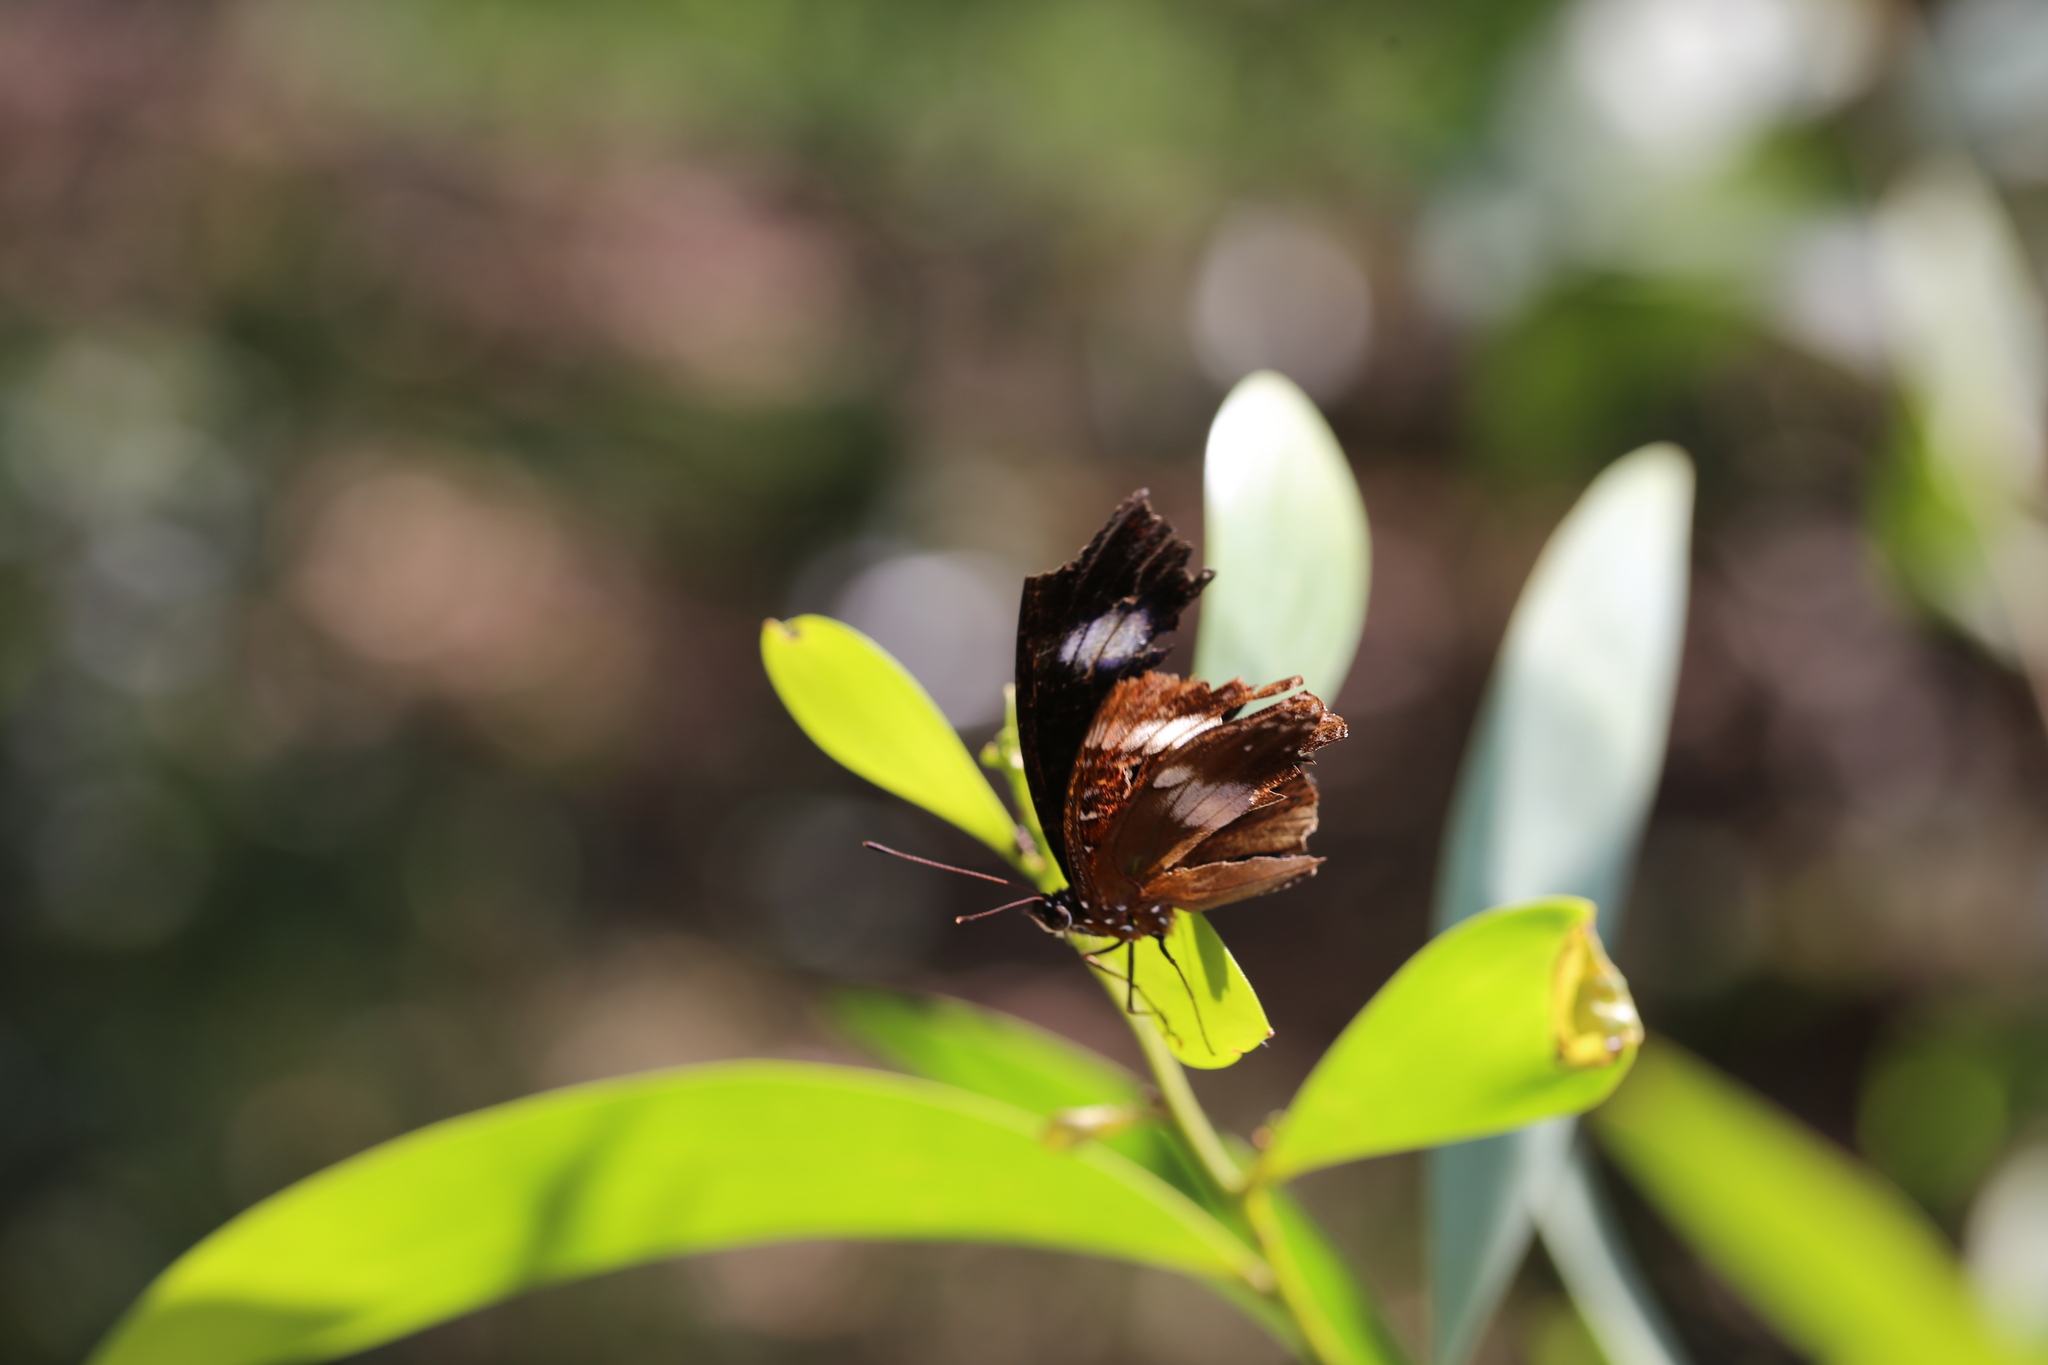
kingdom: Animalia
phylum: Arthropoda
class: Insecta
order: Lepidoptera
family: Nymphalidae
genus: Hypolimnas
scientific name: Hypolimnas bolina
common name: Great eggfly
